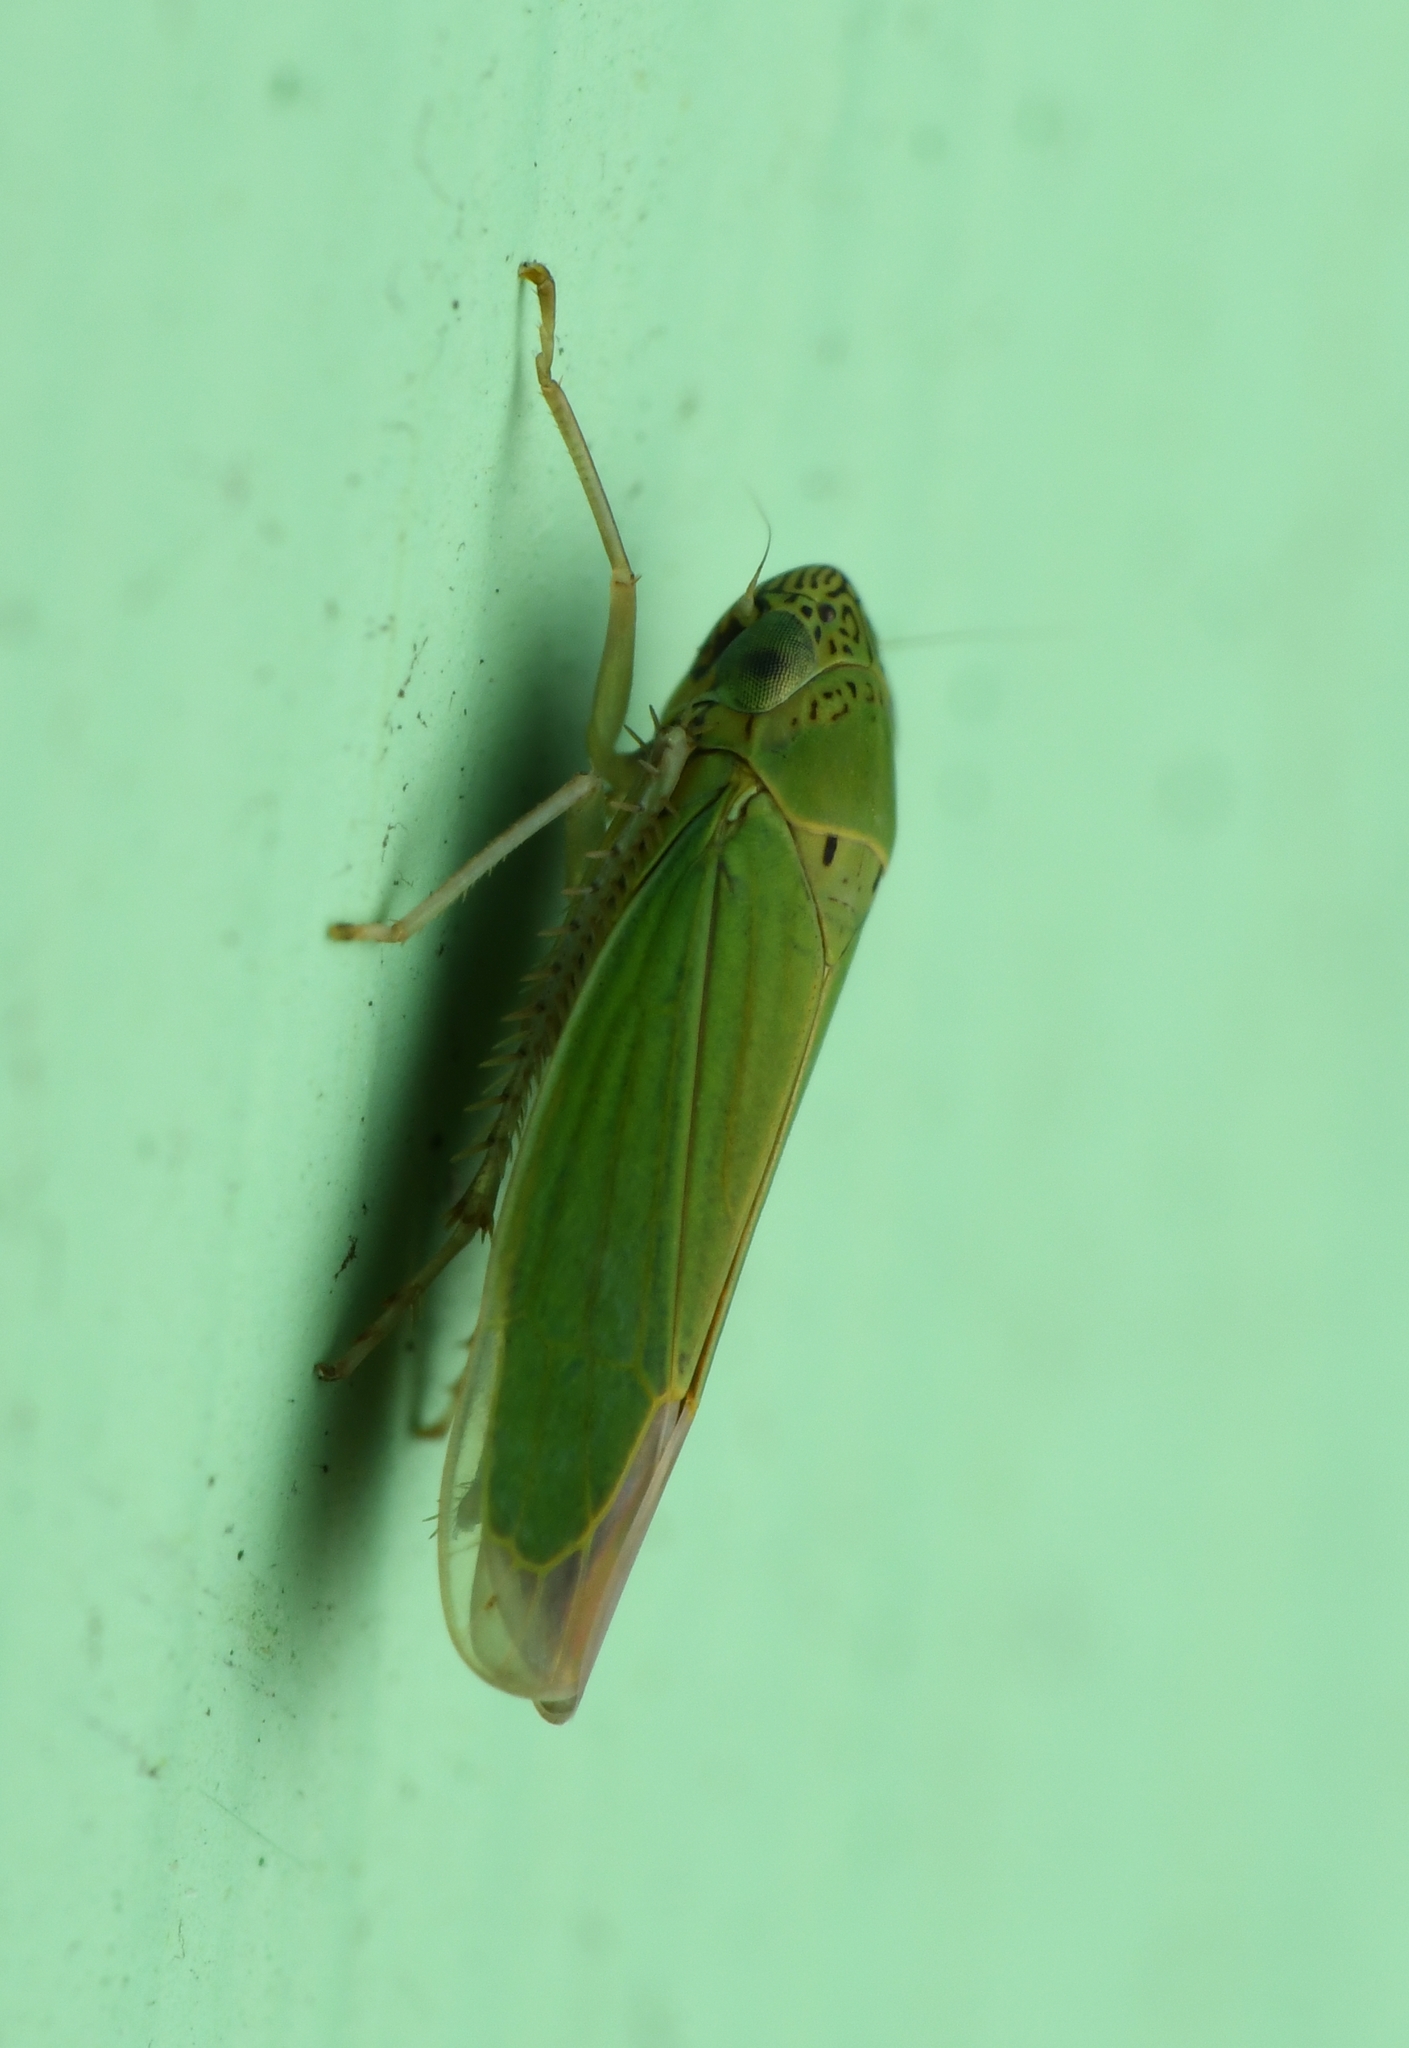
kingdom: Animalia
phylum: Arthropoda
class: Insecta
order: Hemiptera
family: Cicadellidae
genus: Hortensia
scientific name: Hortensia similis
